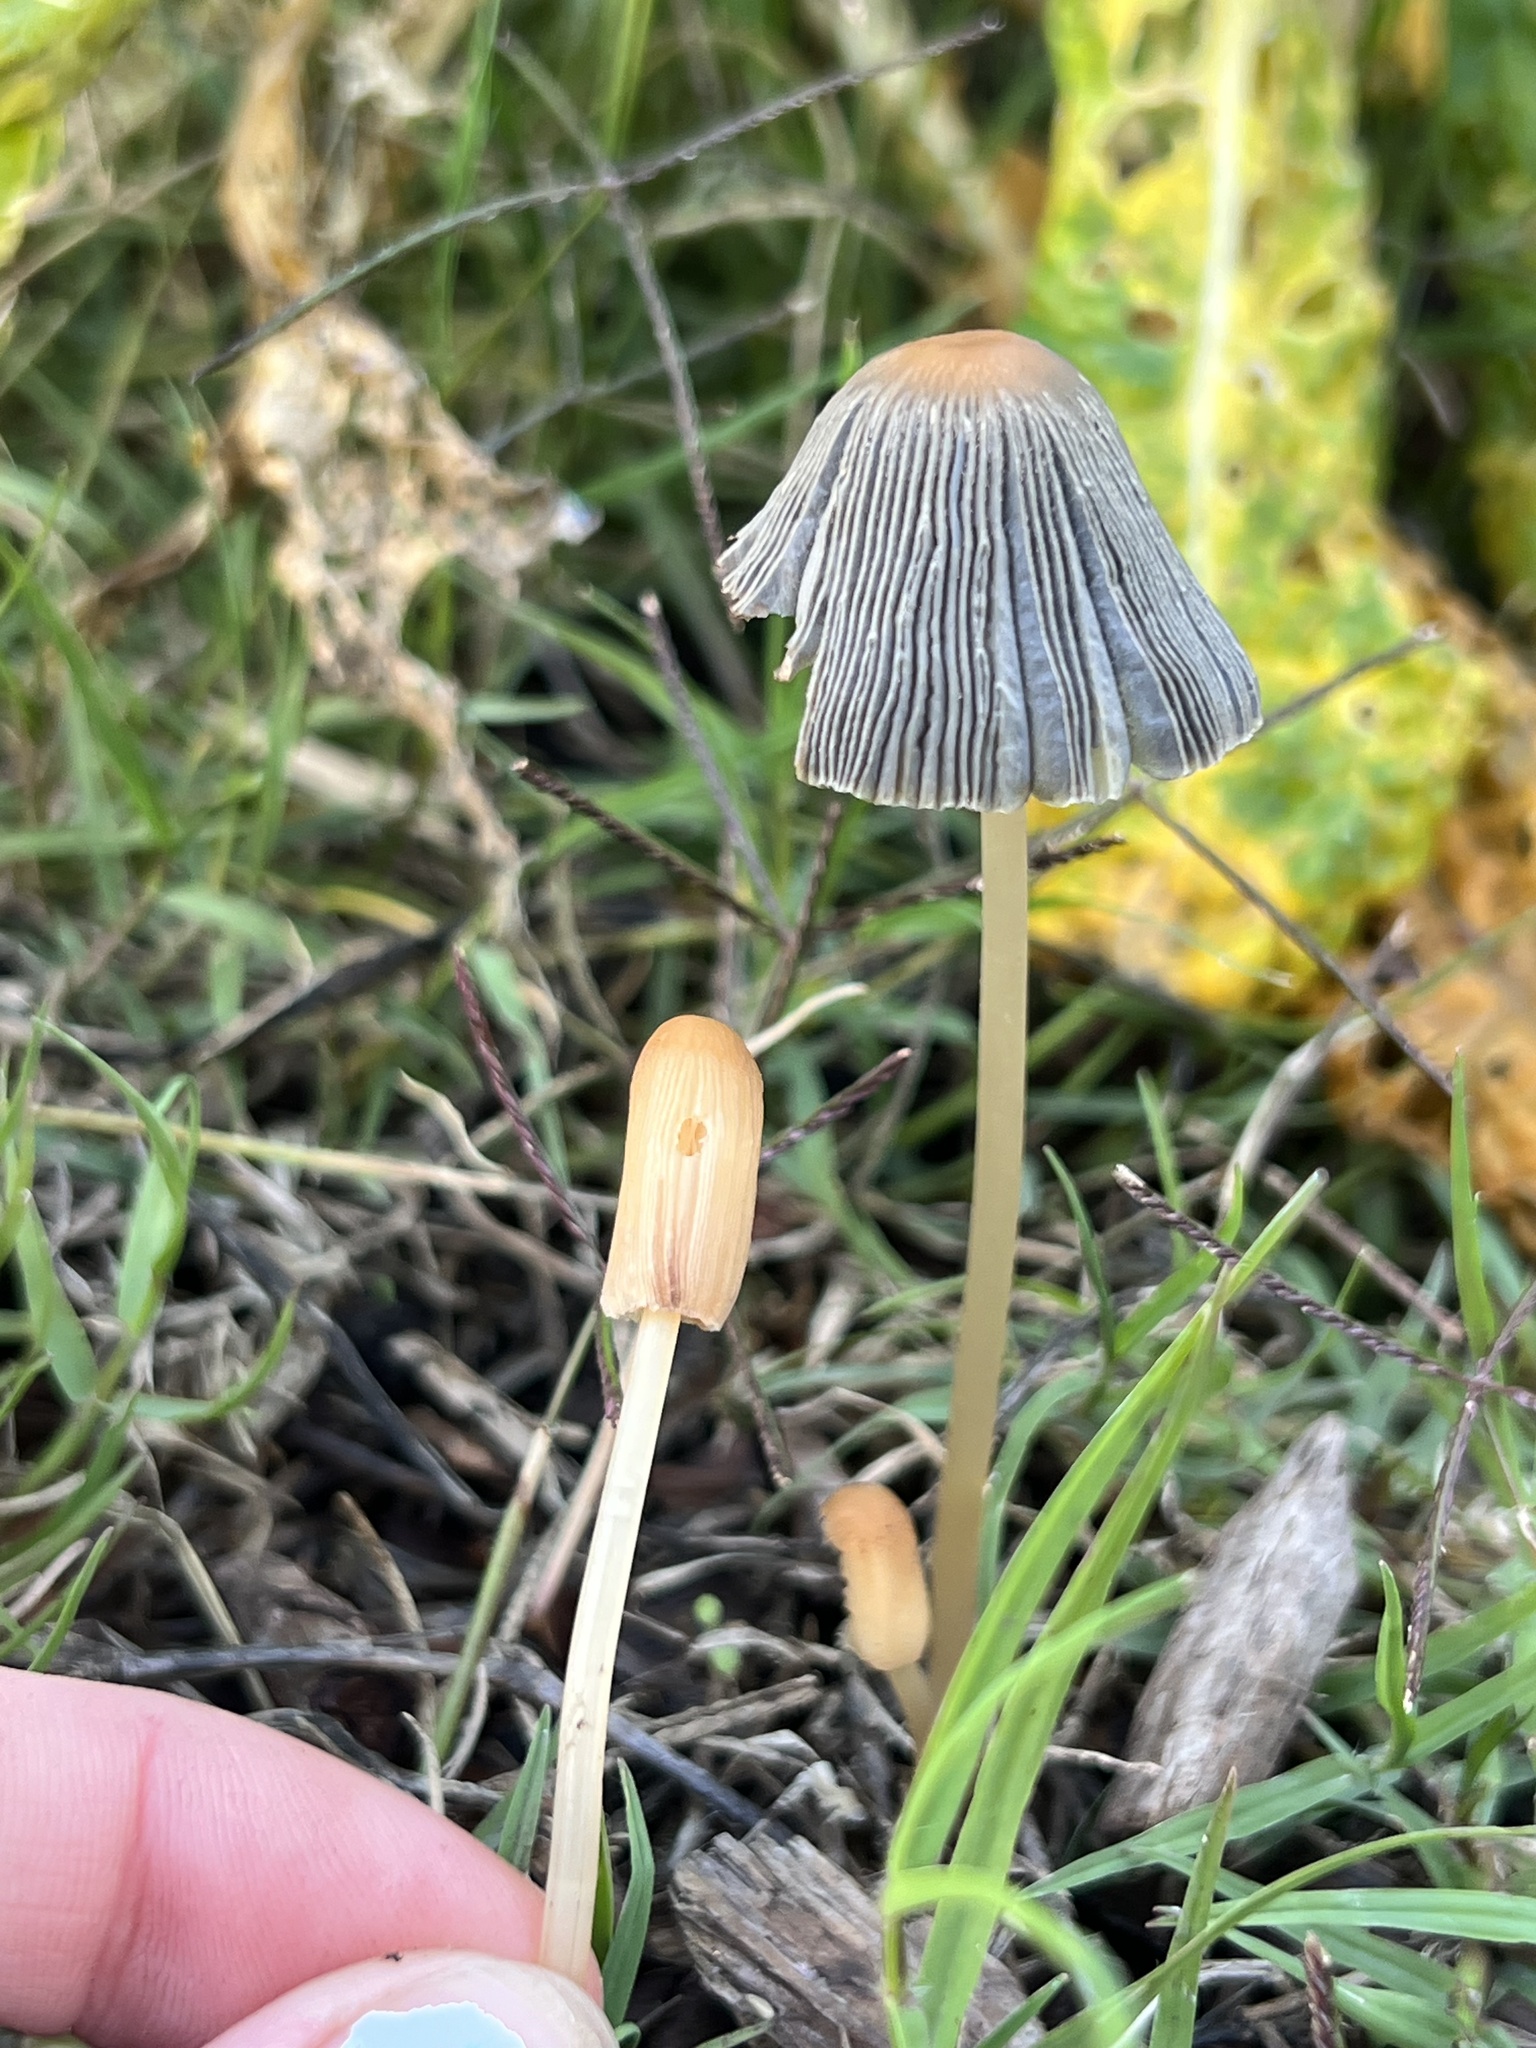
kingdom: Fungi
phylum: Basidiomycota
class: Agaricomycetes
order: Agaricales
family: Psathyrellaceae
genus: Parasola
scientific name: Parasola auricoma
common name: Goldenhaired inkcap
